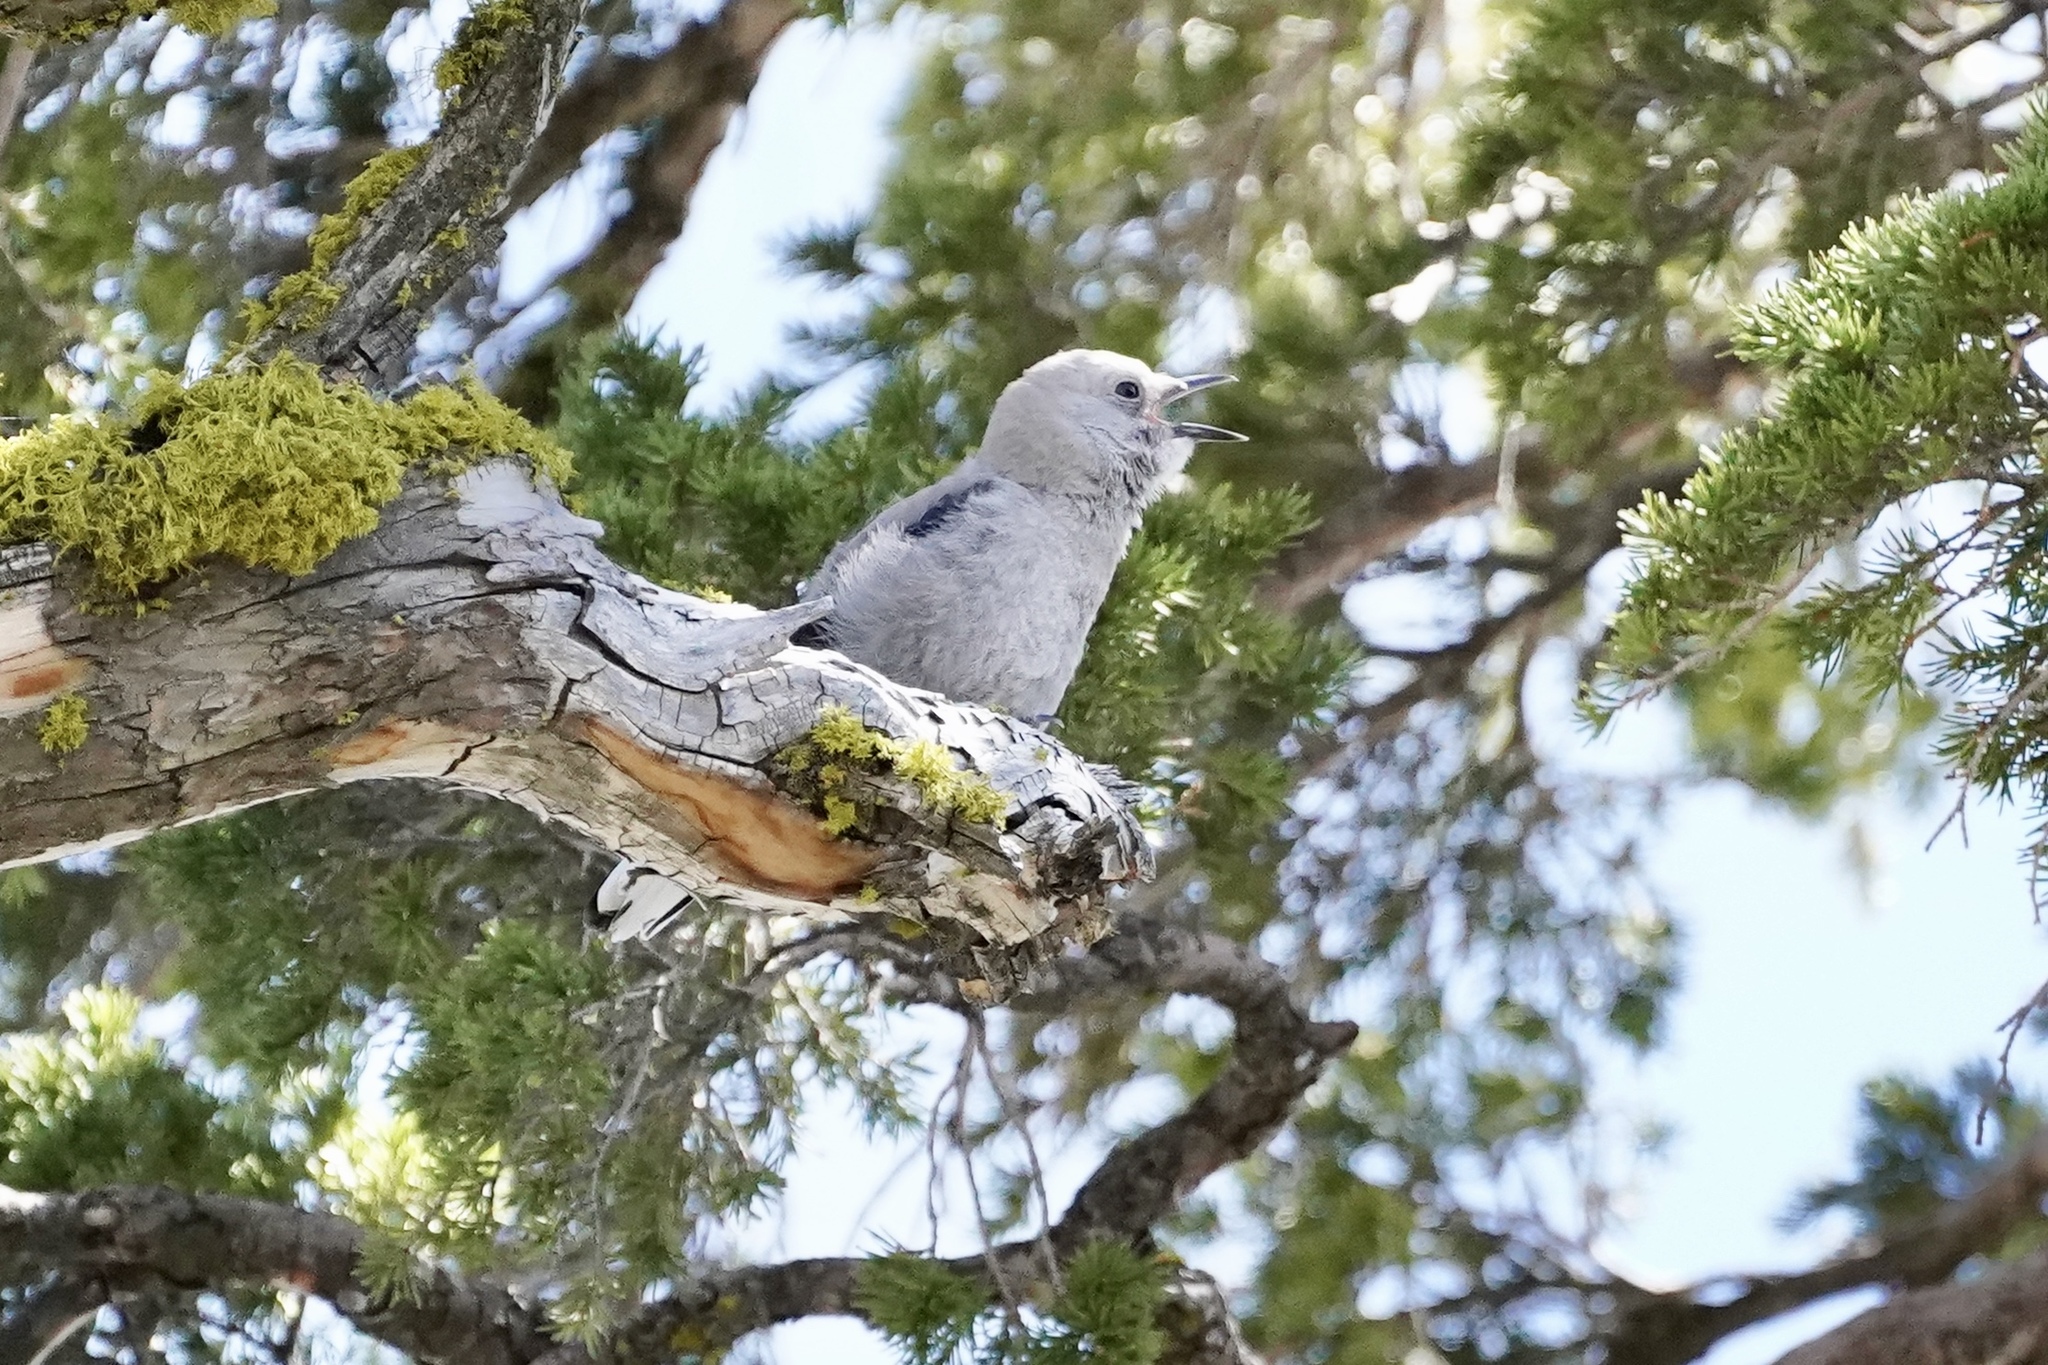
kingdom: Animalia
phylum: Chordata
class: Aves
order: Passeriformes
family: Corvidae
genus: Nucifraga
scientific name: Nucifraga columbiana
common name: Clark's nutcracker
